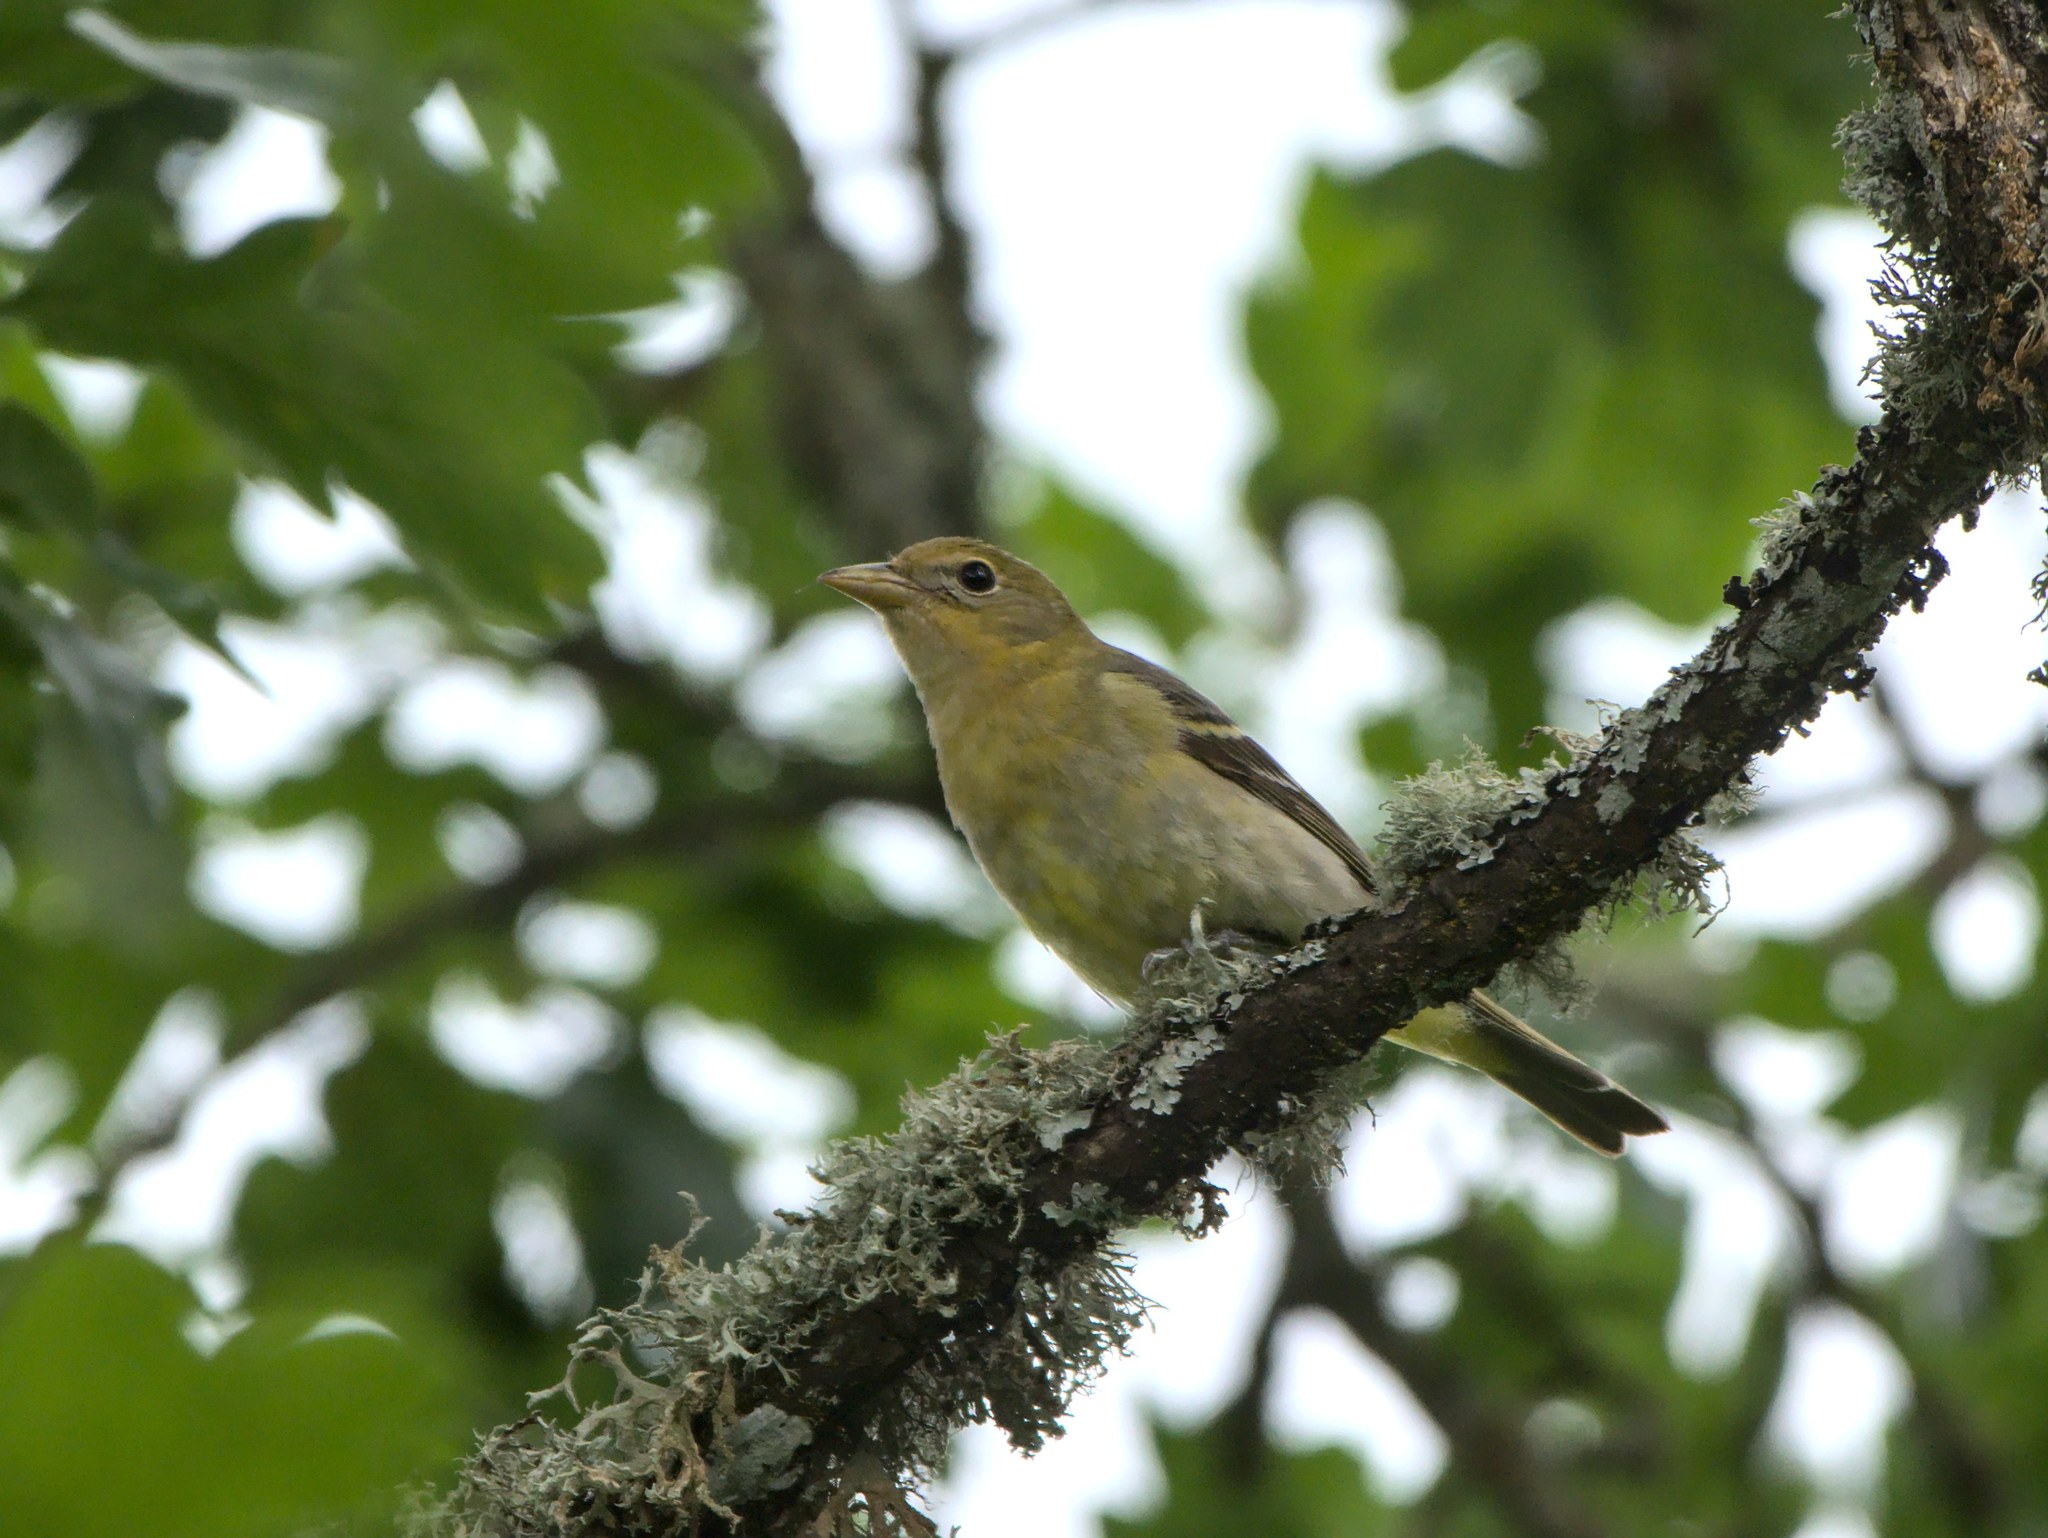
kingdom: Animalia
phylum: Chordata
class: Aves
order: Passeriformes
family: Cardinalidae
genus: Piranga
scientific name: Piranga ludoviciana
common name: Western tanager
